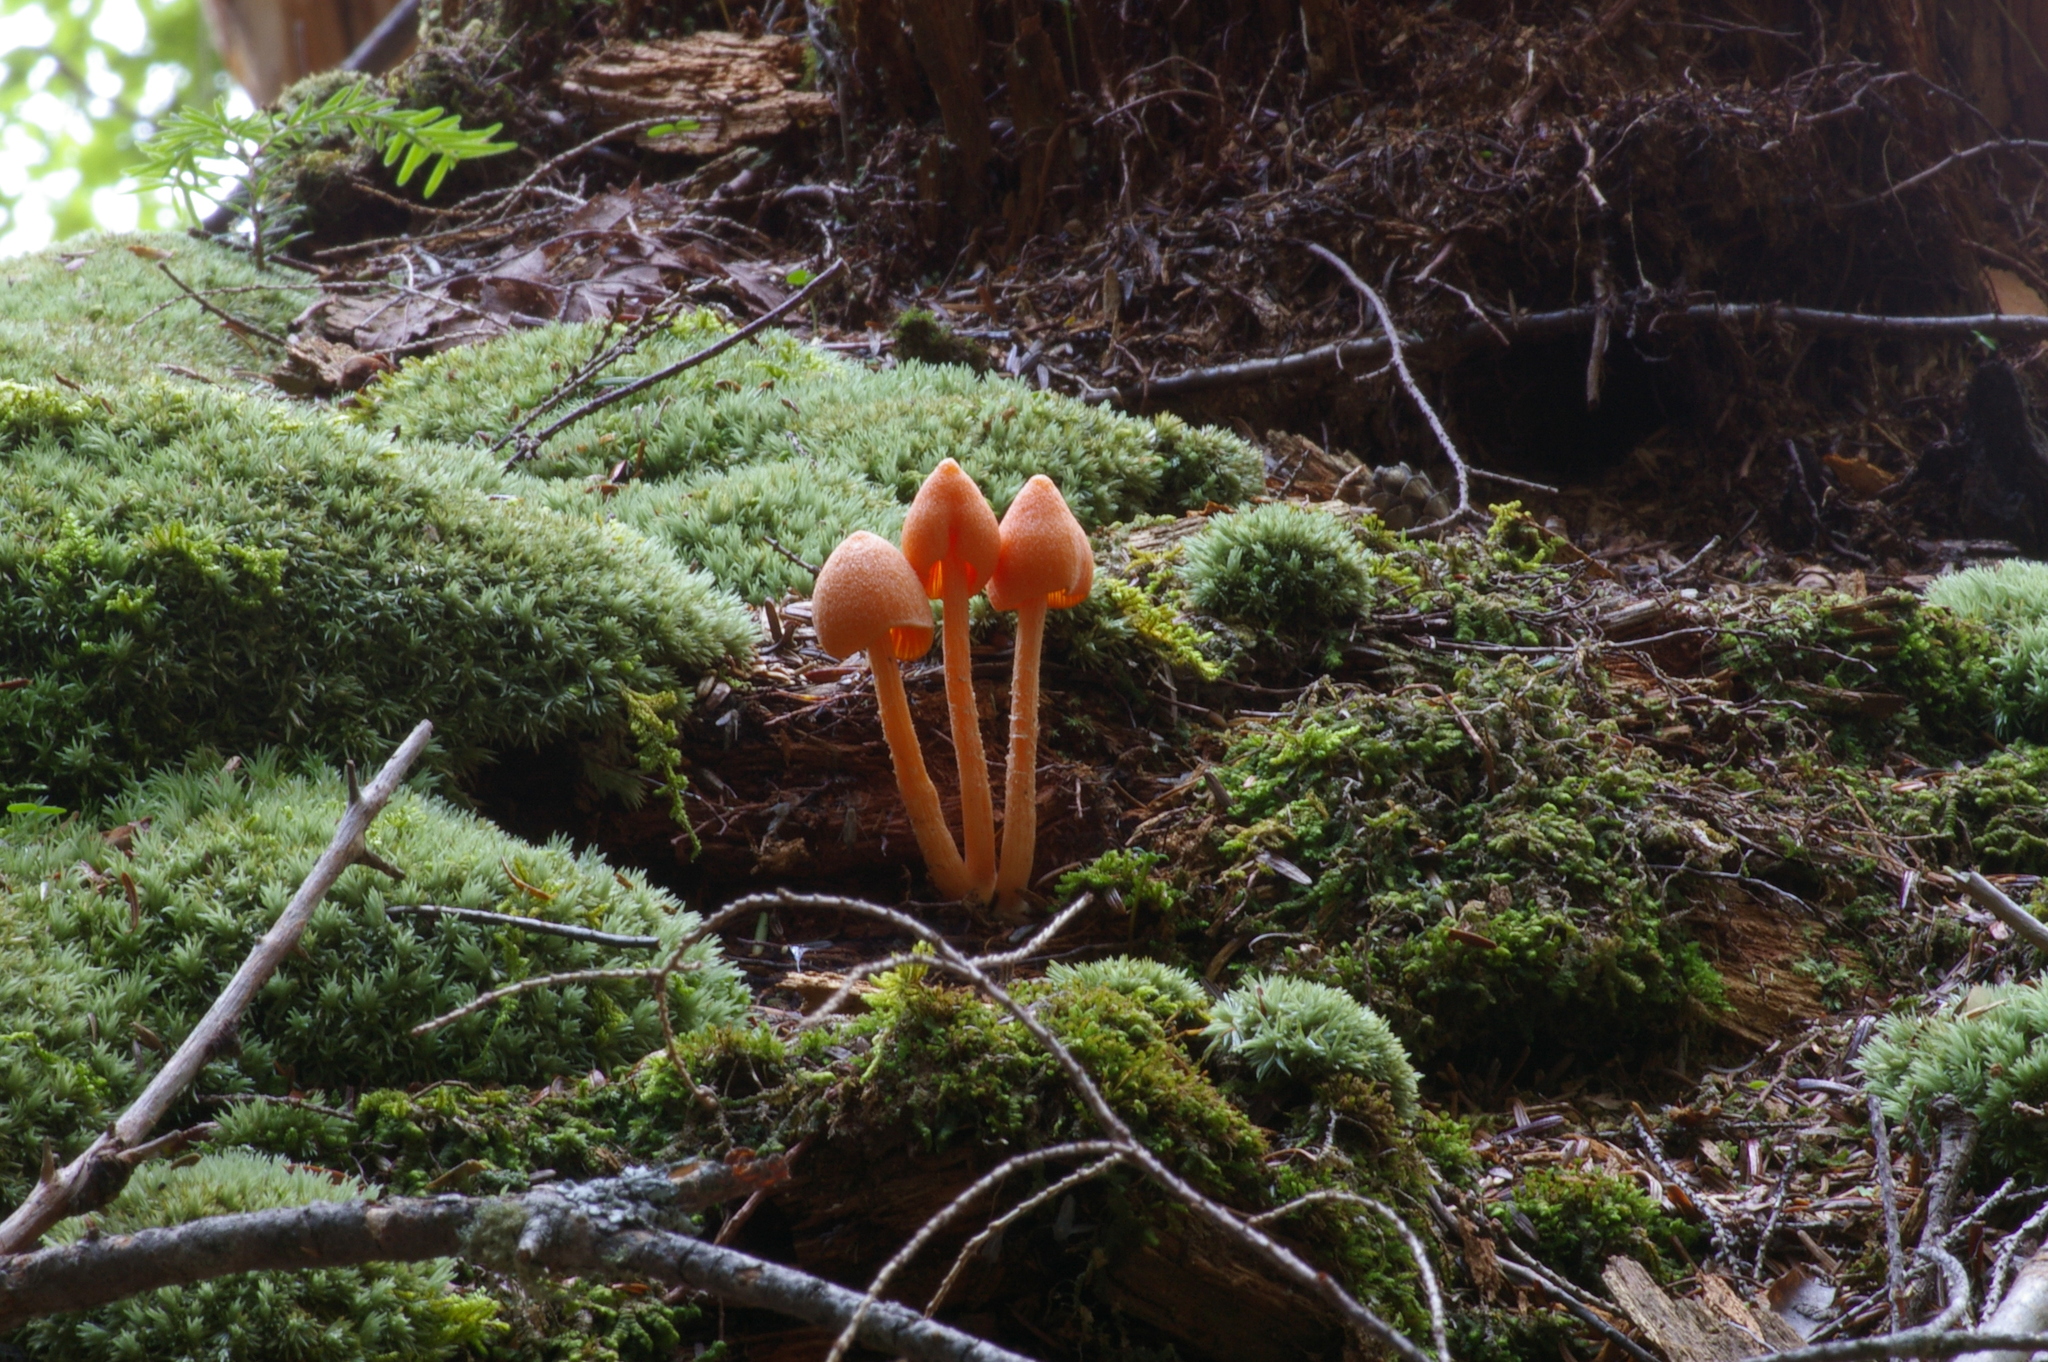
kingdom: Fungi
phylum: Basidiomycota
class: Agaricomycetes
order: Agaricales
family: Entolomataceae
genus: Entoloma
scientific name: Entoloma quadratum
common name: Salmon pinkgill
